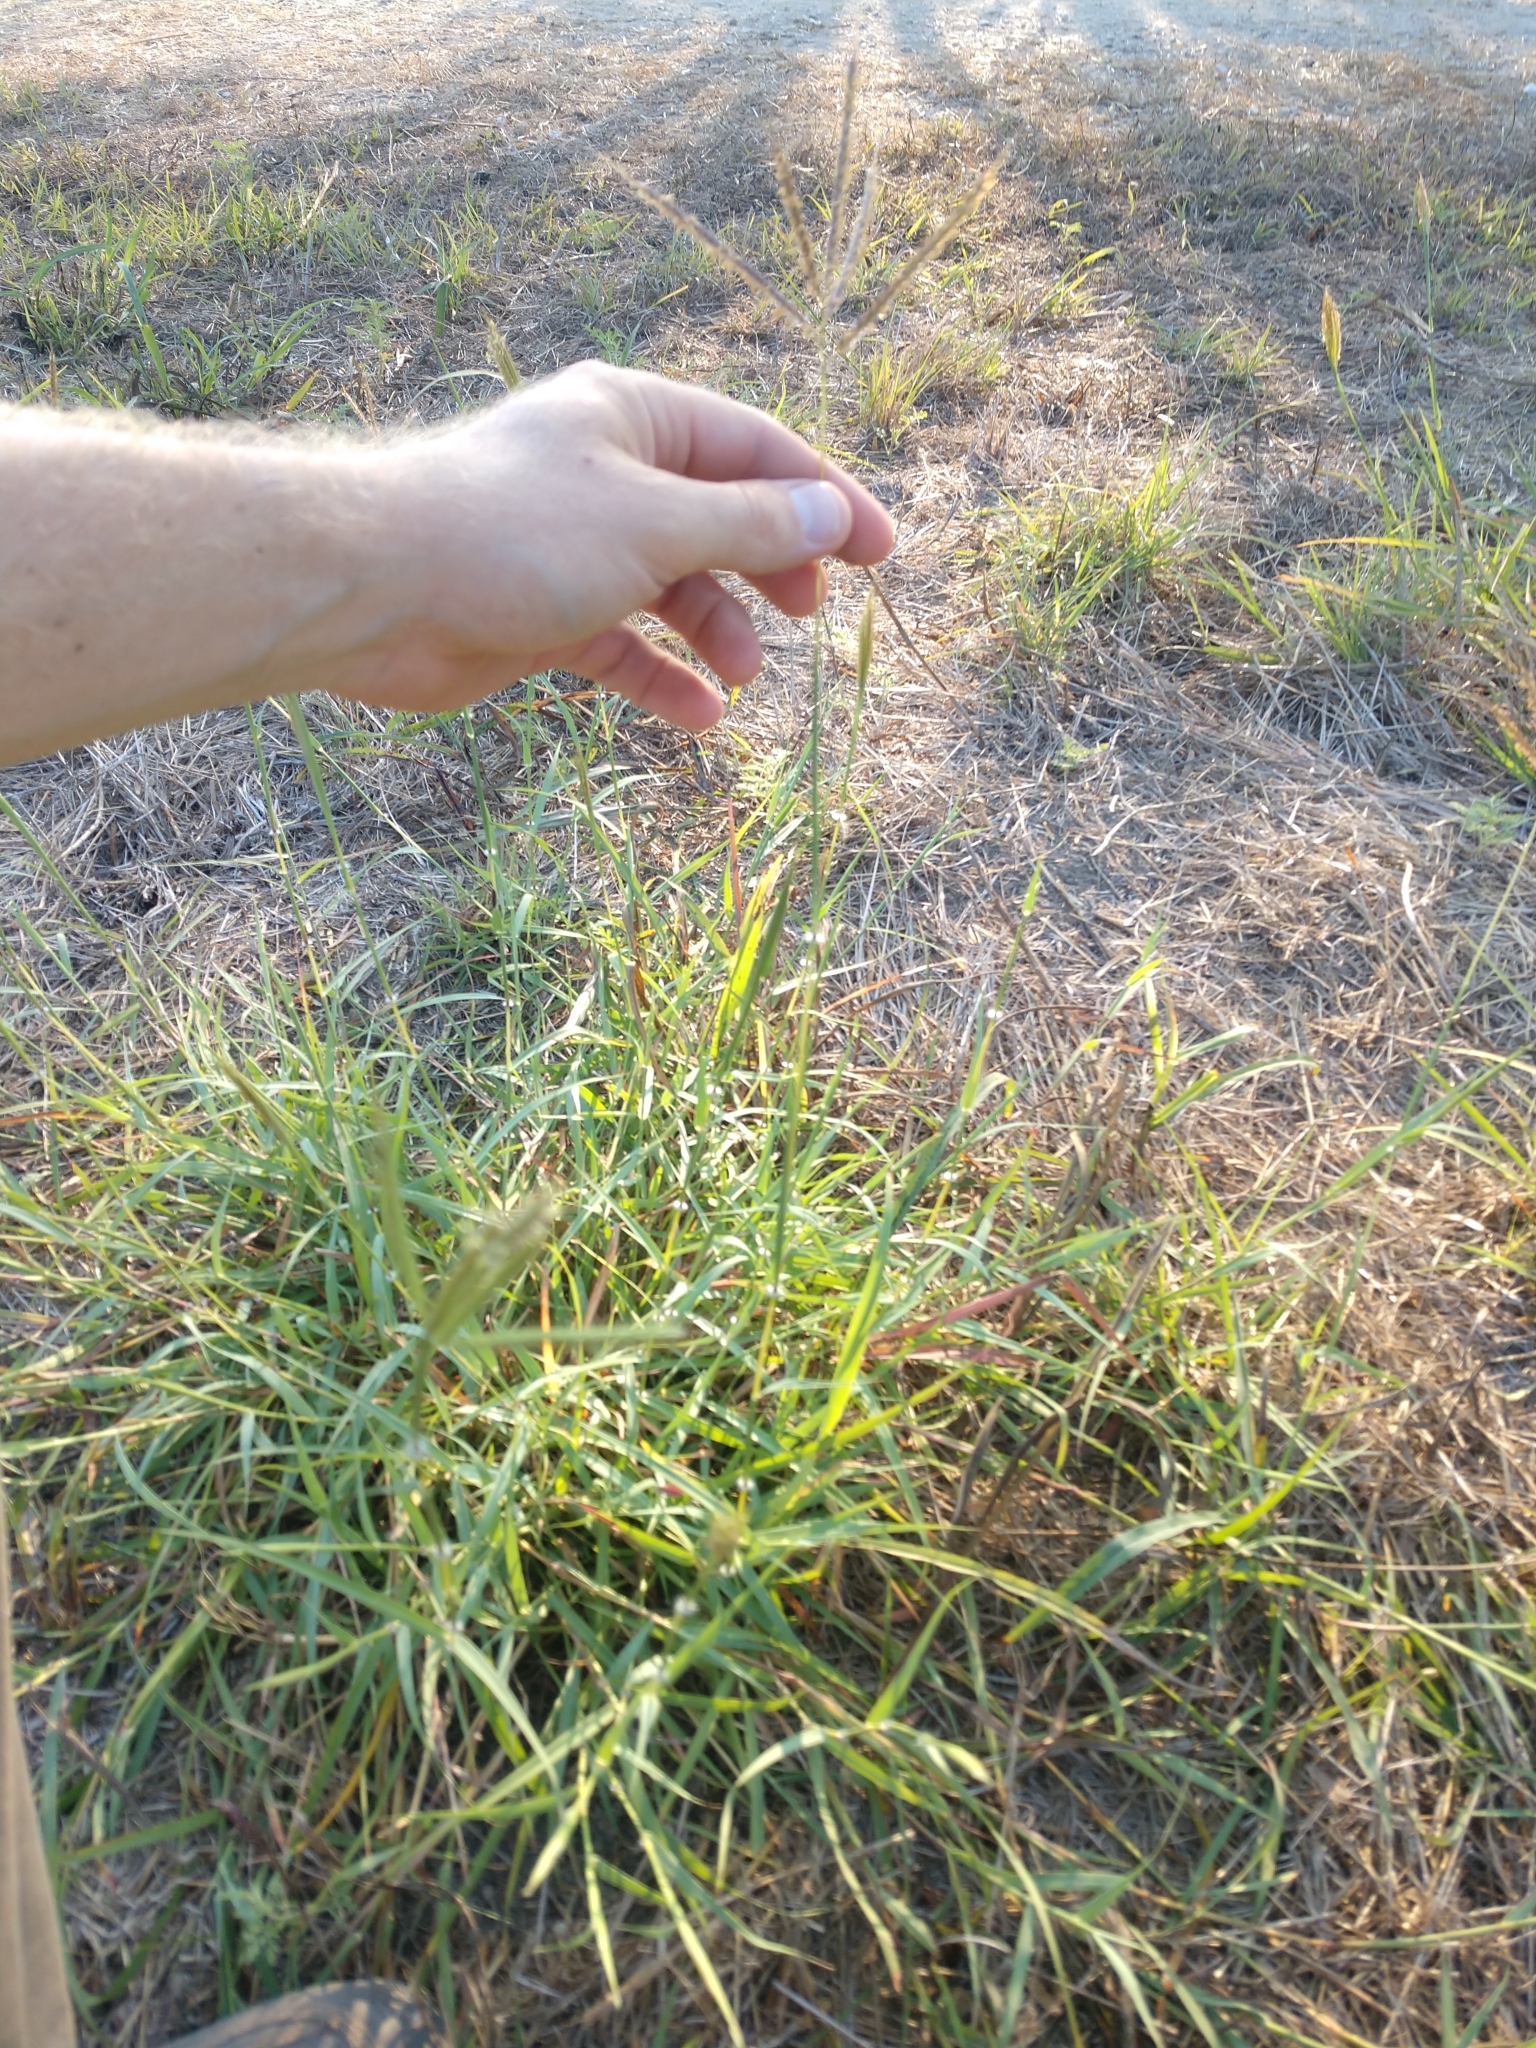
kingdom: Plantae
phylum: Tracheophyta
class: Liliopsida
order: Poales
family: Poaceae
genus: Dichanthium
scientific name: Dichanthium annulatum
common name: Kleberg's bluestem
